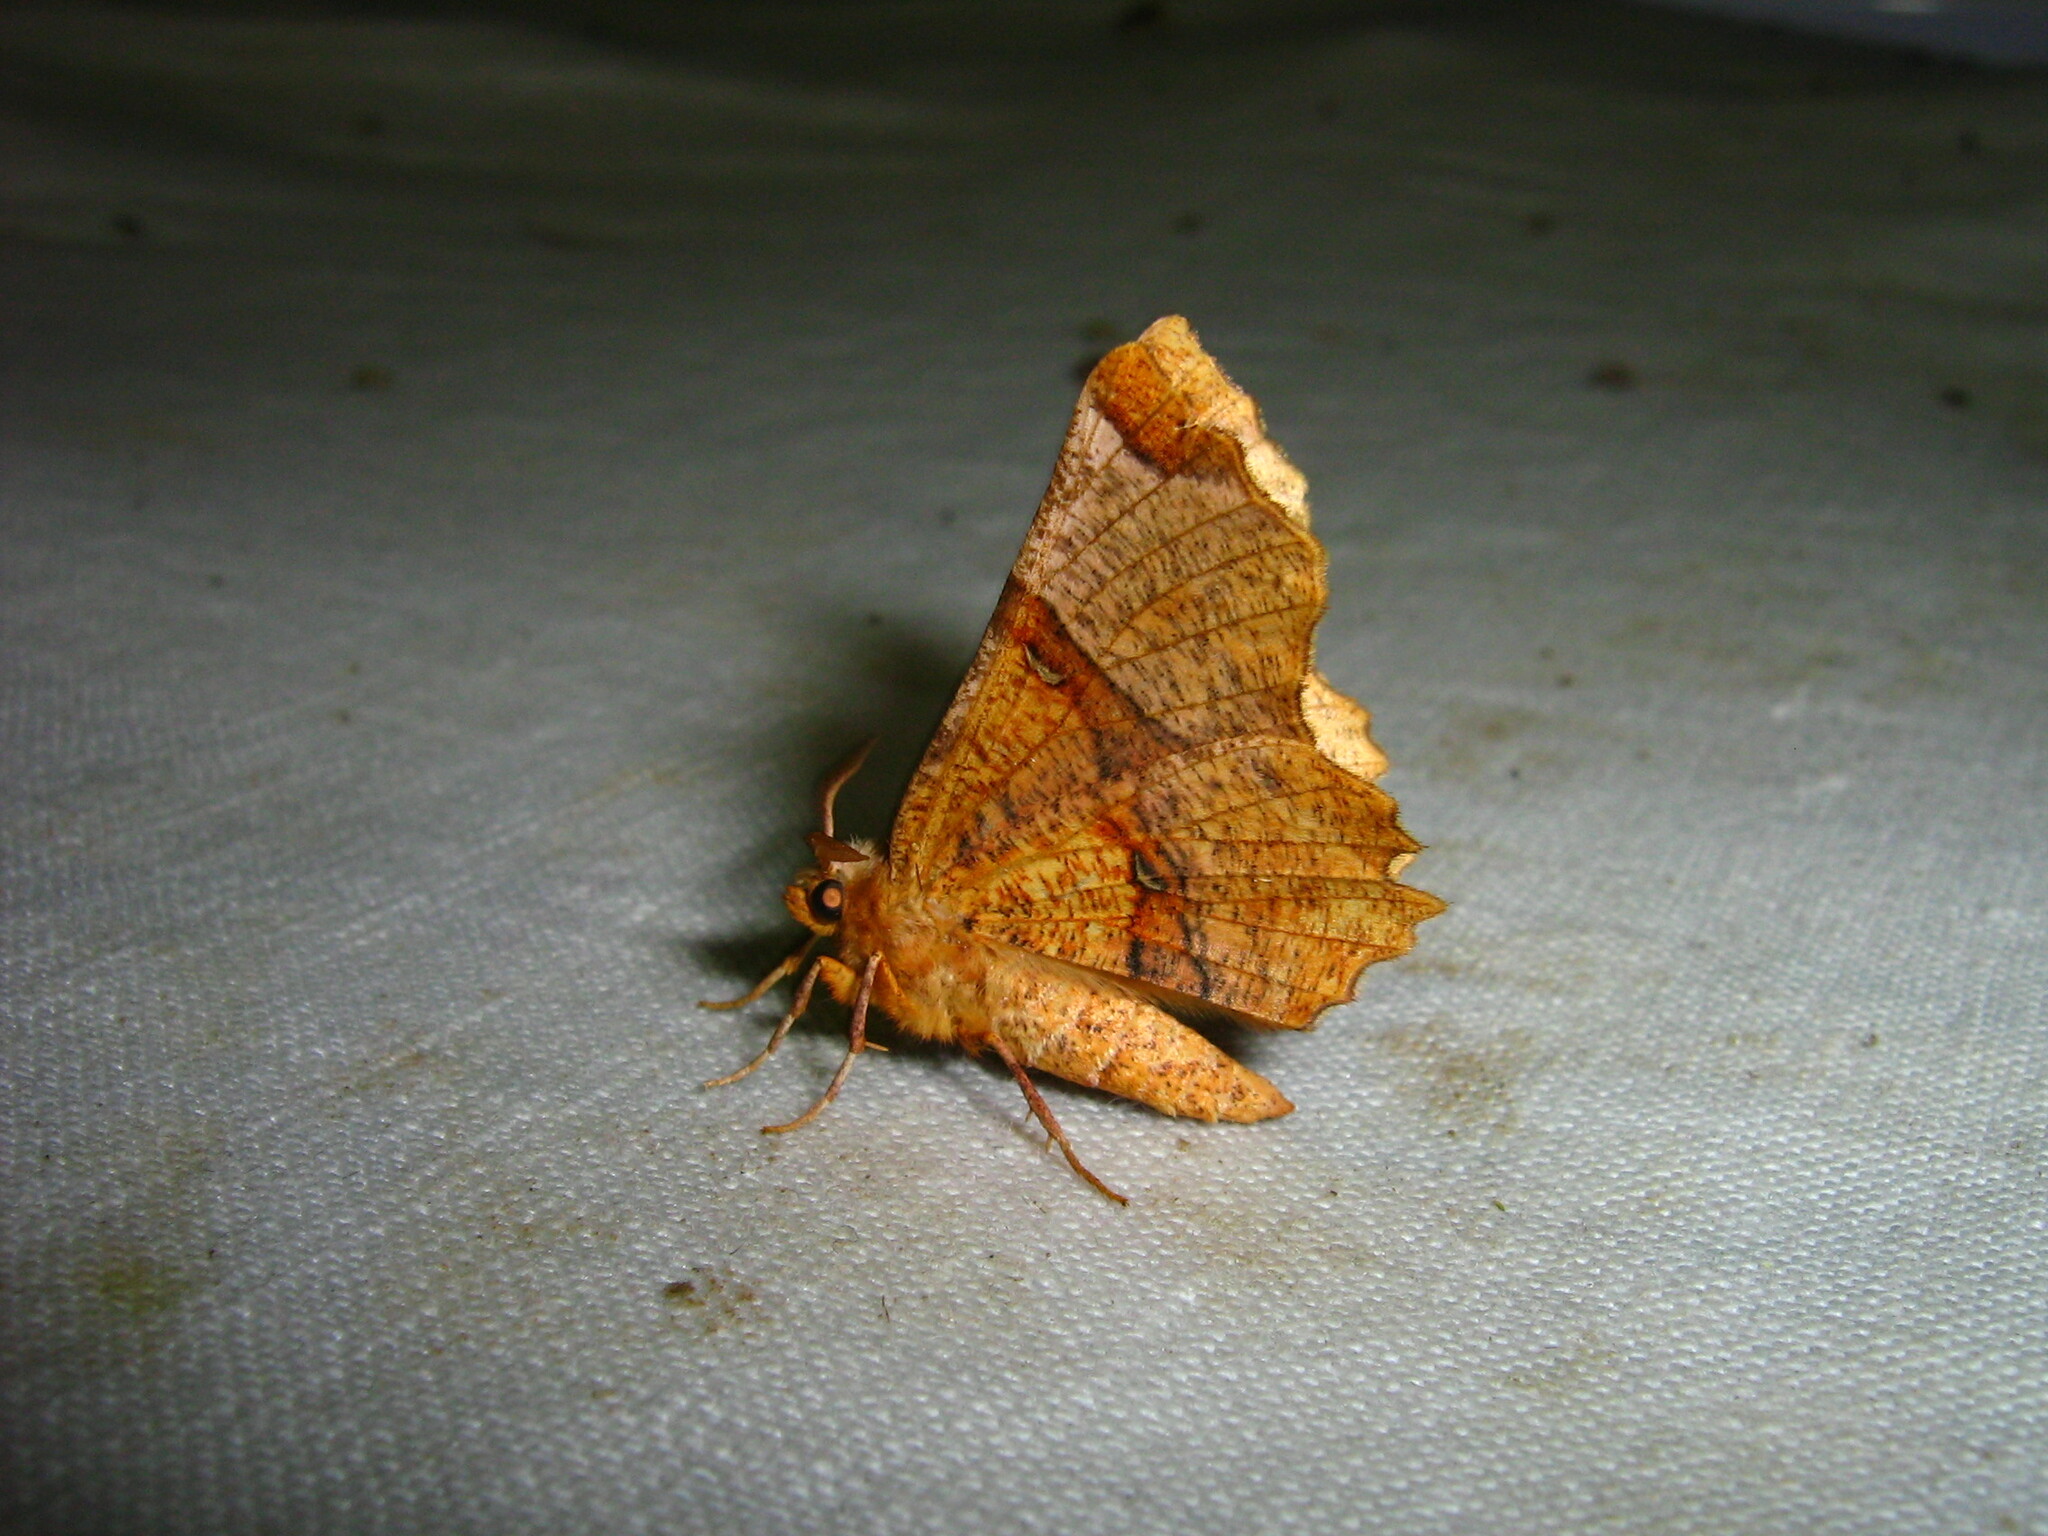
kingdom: Animalia
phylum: Arthropoda
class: Insecta
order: Lepidoptera
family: Geometridae
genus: Selenia
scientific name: Selenia lunularia
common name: Lunar thorn
